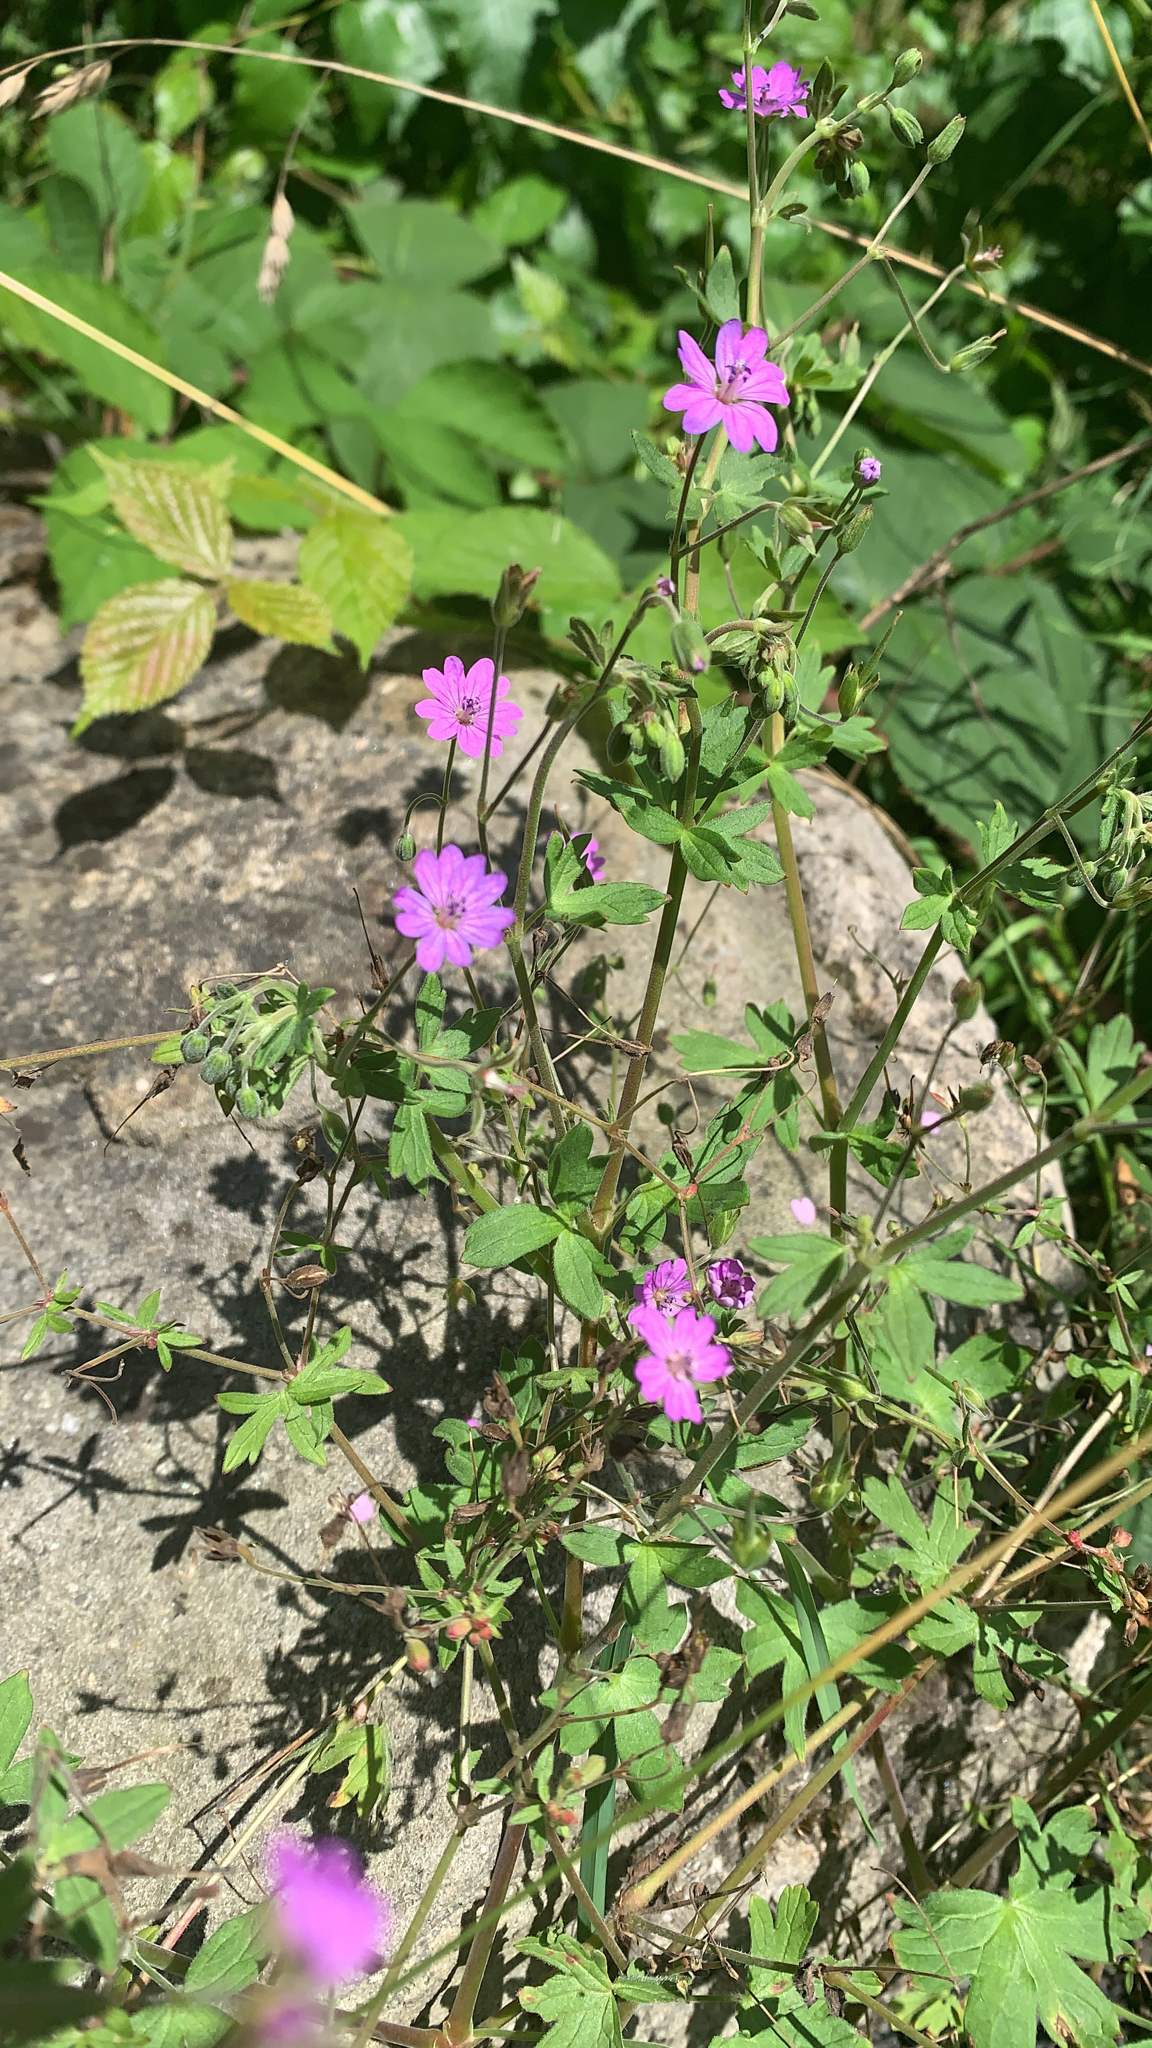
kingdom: Plantae
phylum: Tracheophyta
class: Magnoliopsida
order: Geraniales
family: Geraniaceae
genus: Geranium
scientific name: Geranium pyrenaicum
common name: Hedgerow crane's-bill
